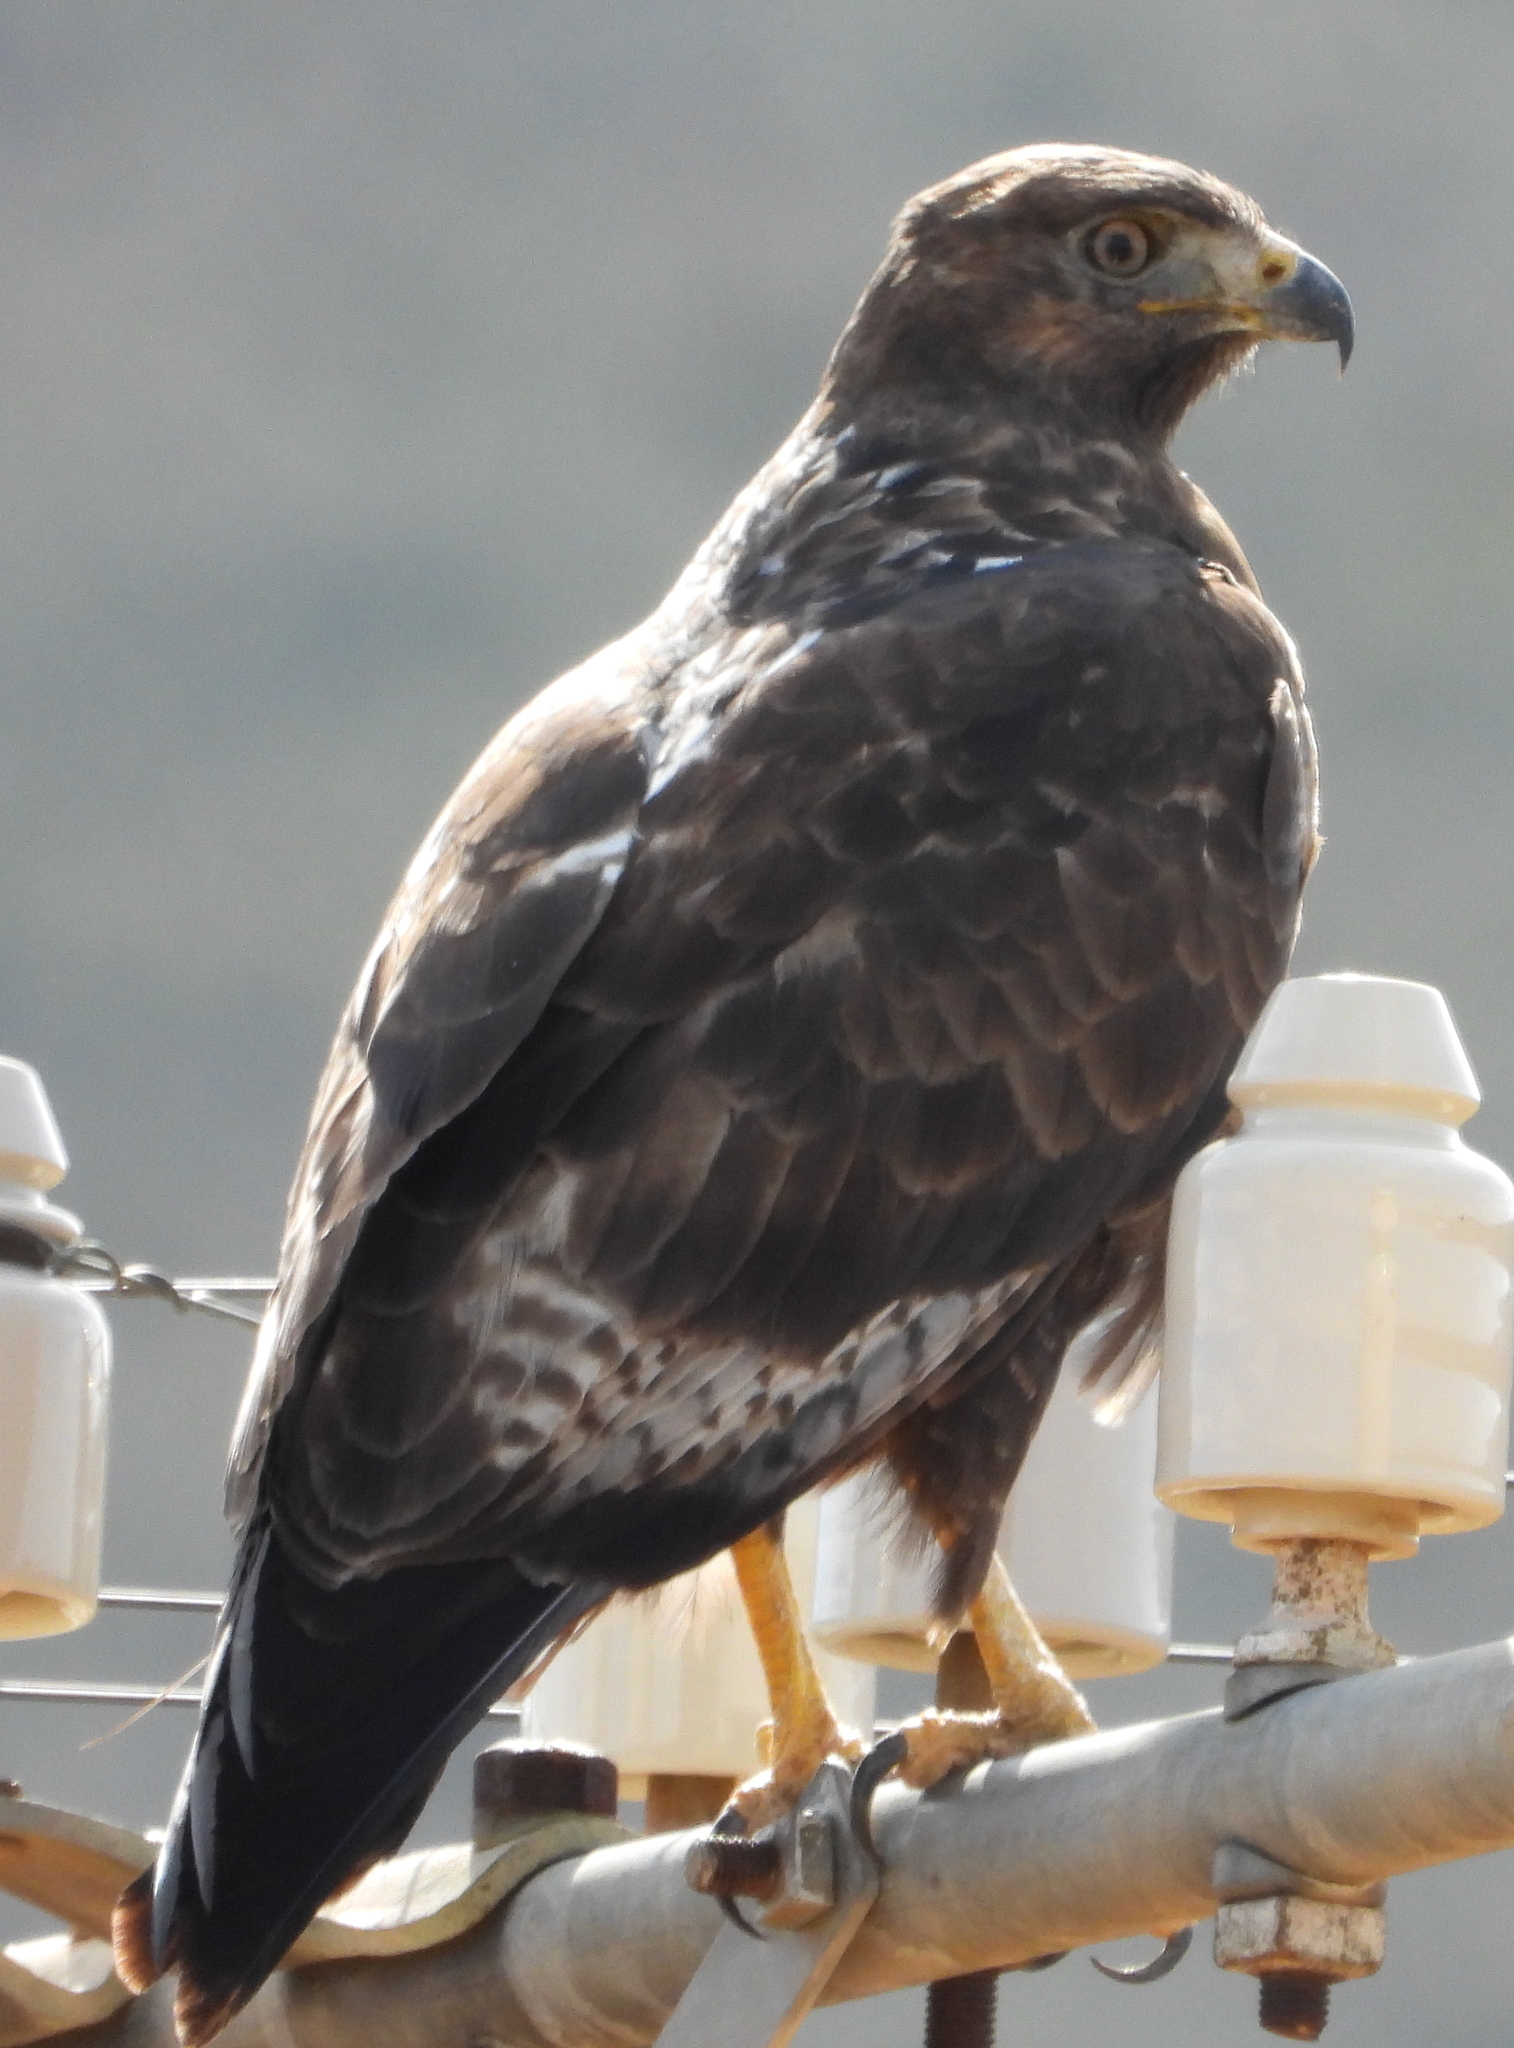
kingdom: Animalia
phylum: Chordata
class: Aves
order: Accipitriformes
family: Accipitridae
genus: Buteo
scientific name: Buteo rufofuscus
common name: Jackal buzzard
